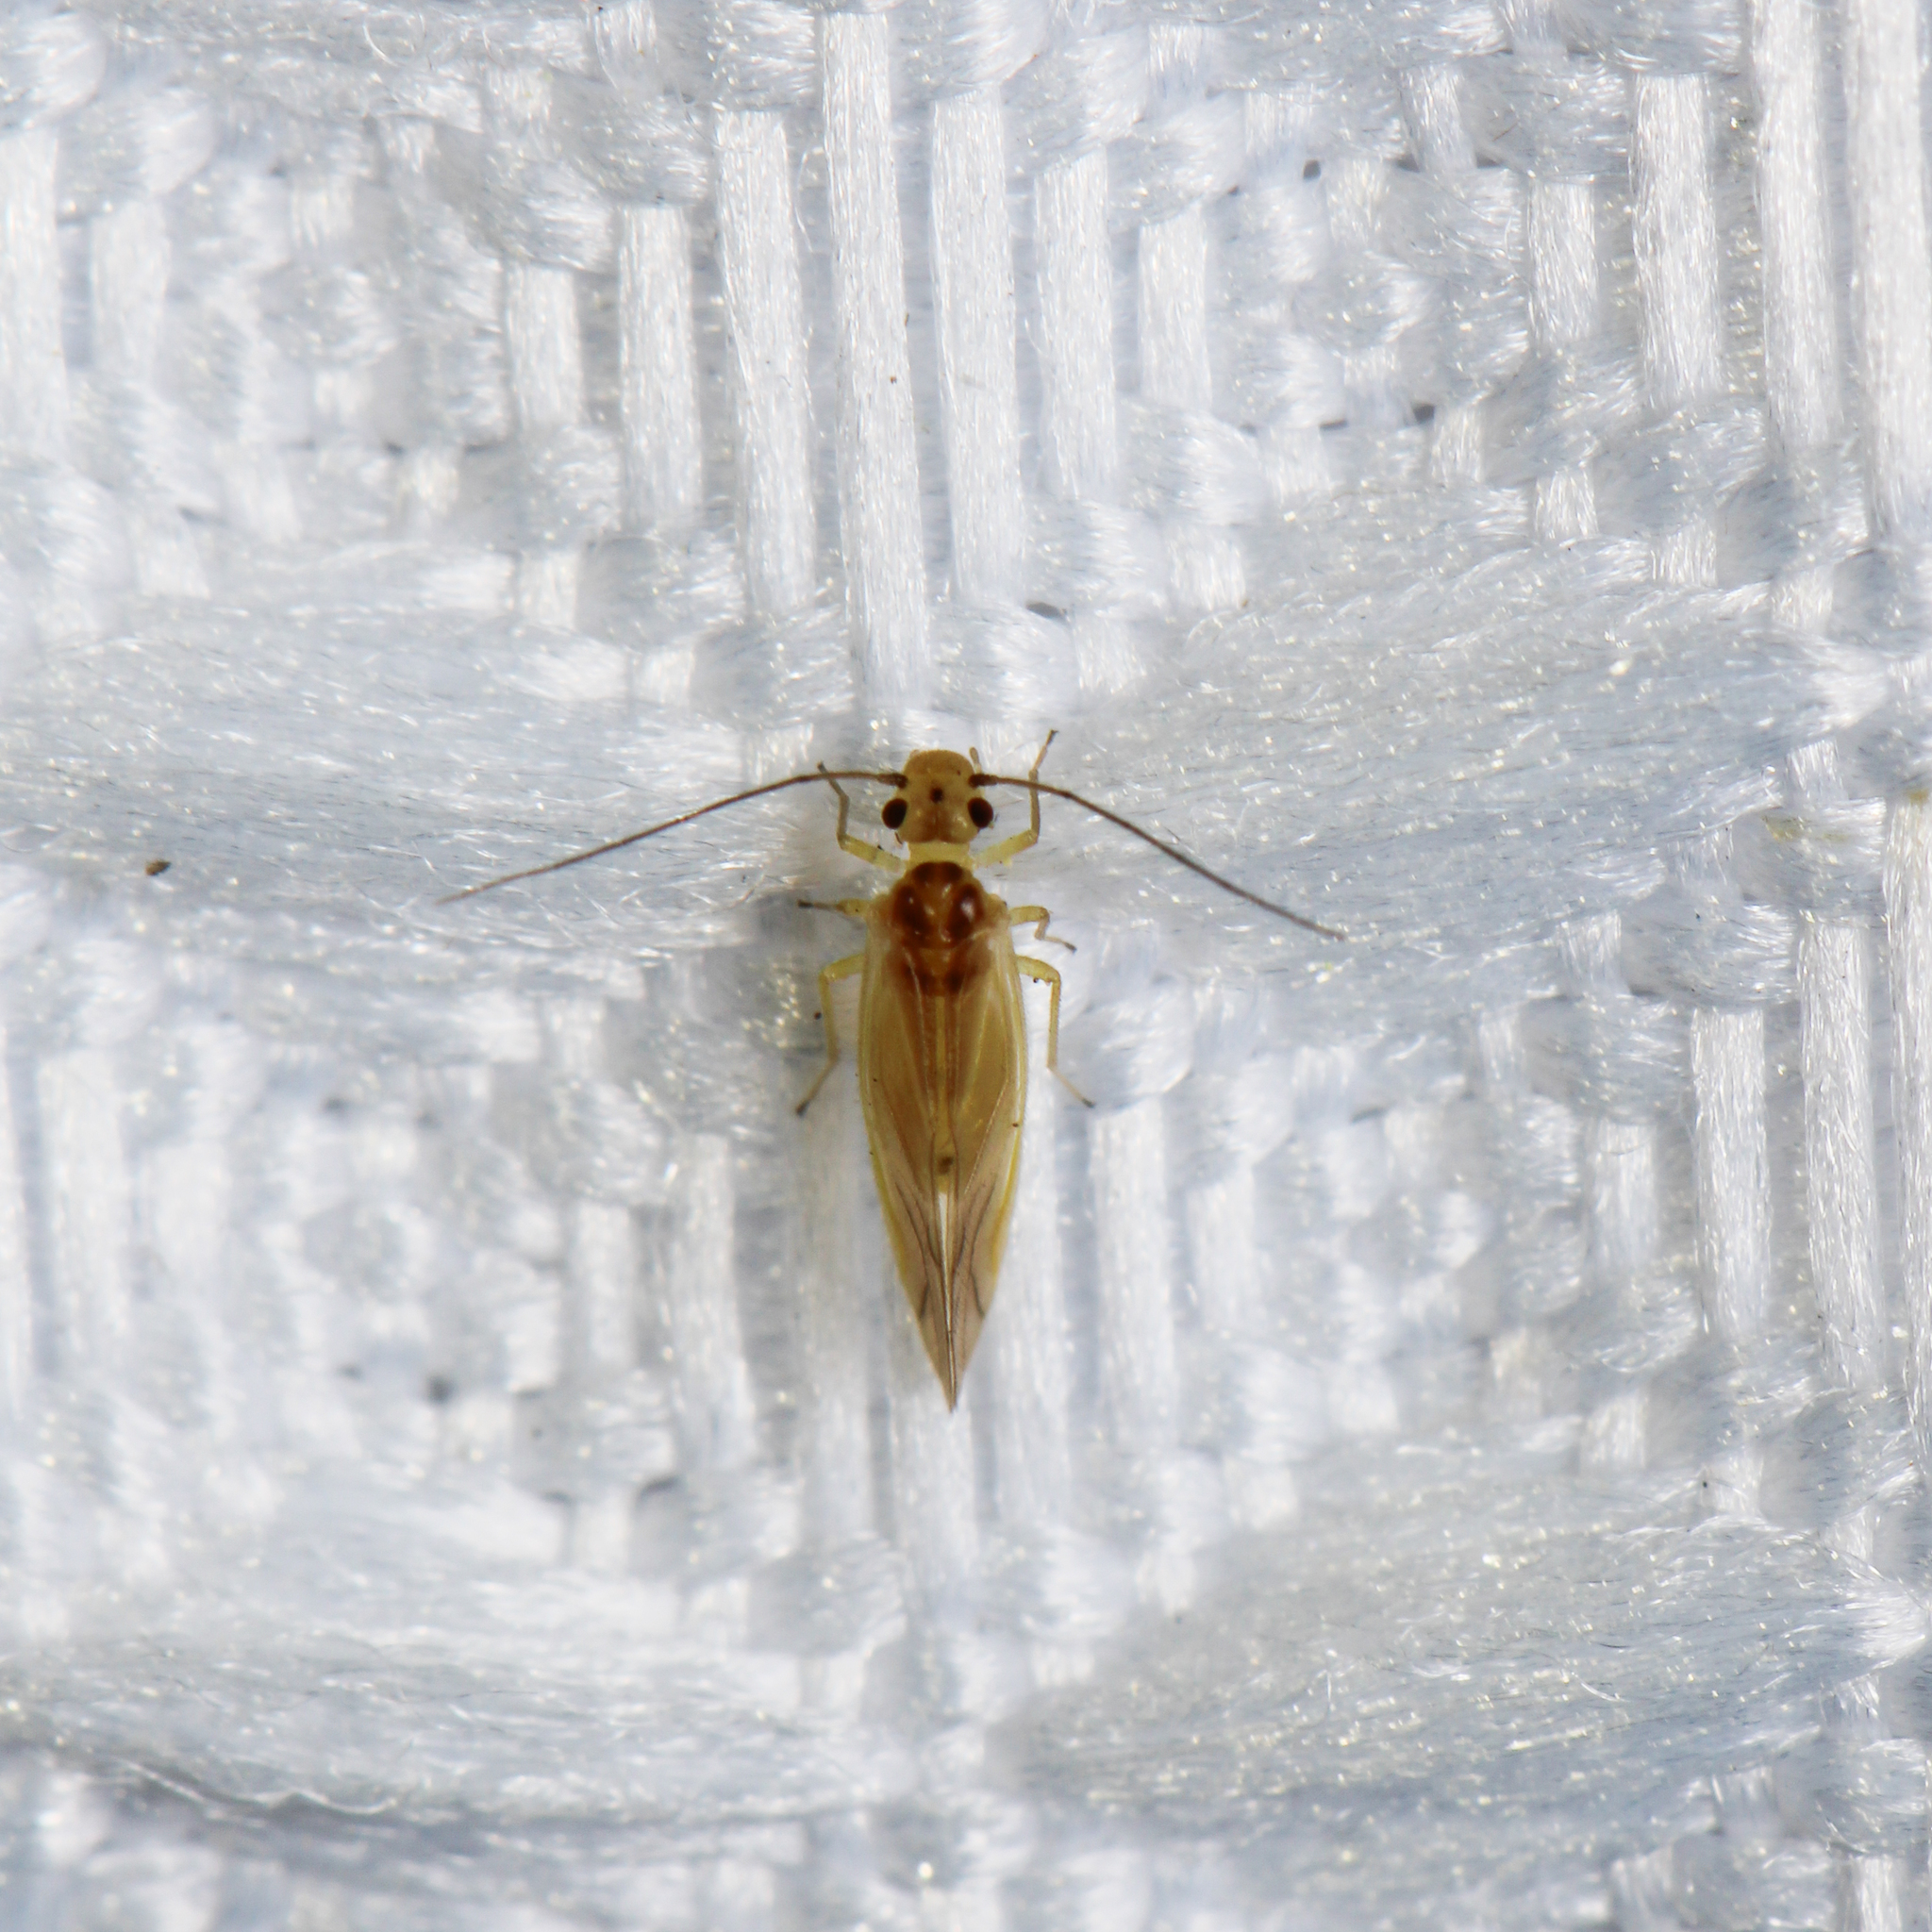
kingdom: Animalia
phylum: Arthropoda
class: Insecta
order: Psocodea
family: Caeciliusidae
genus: Valenzuela
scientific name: Valenzuela flavidus
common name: Yellow barklouse
